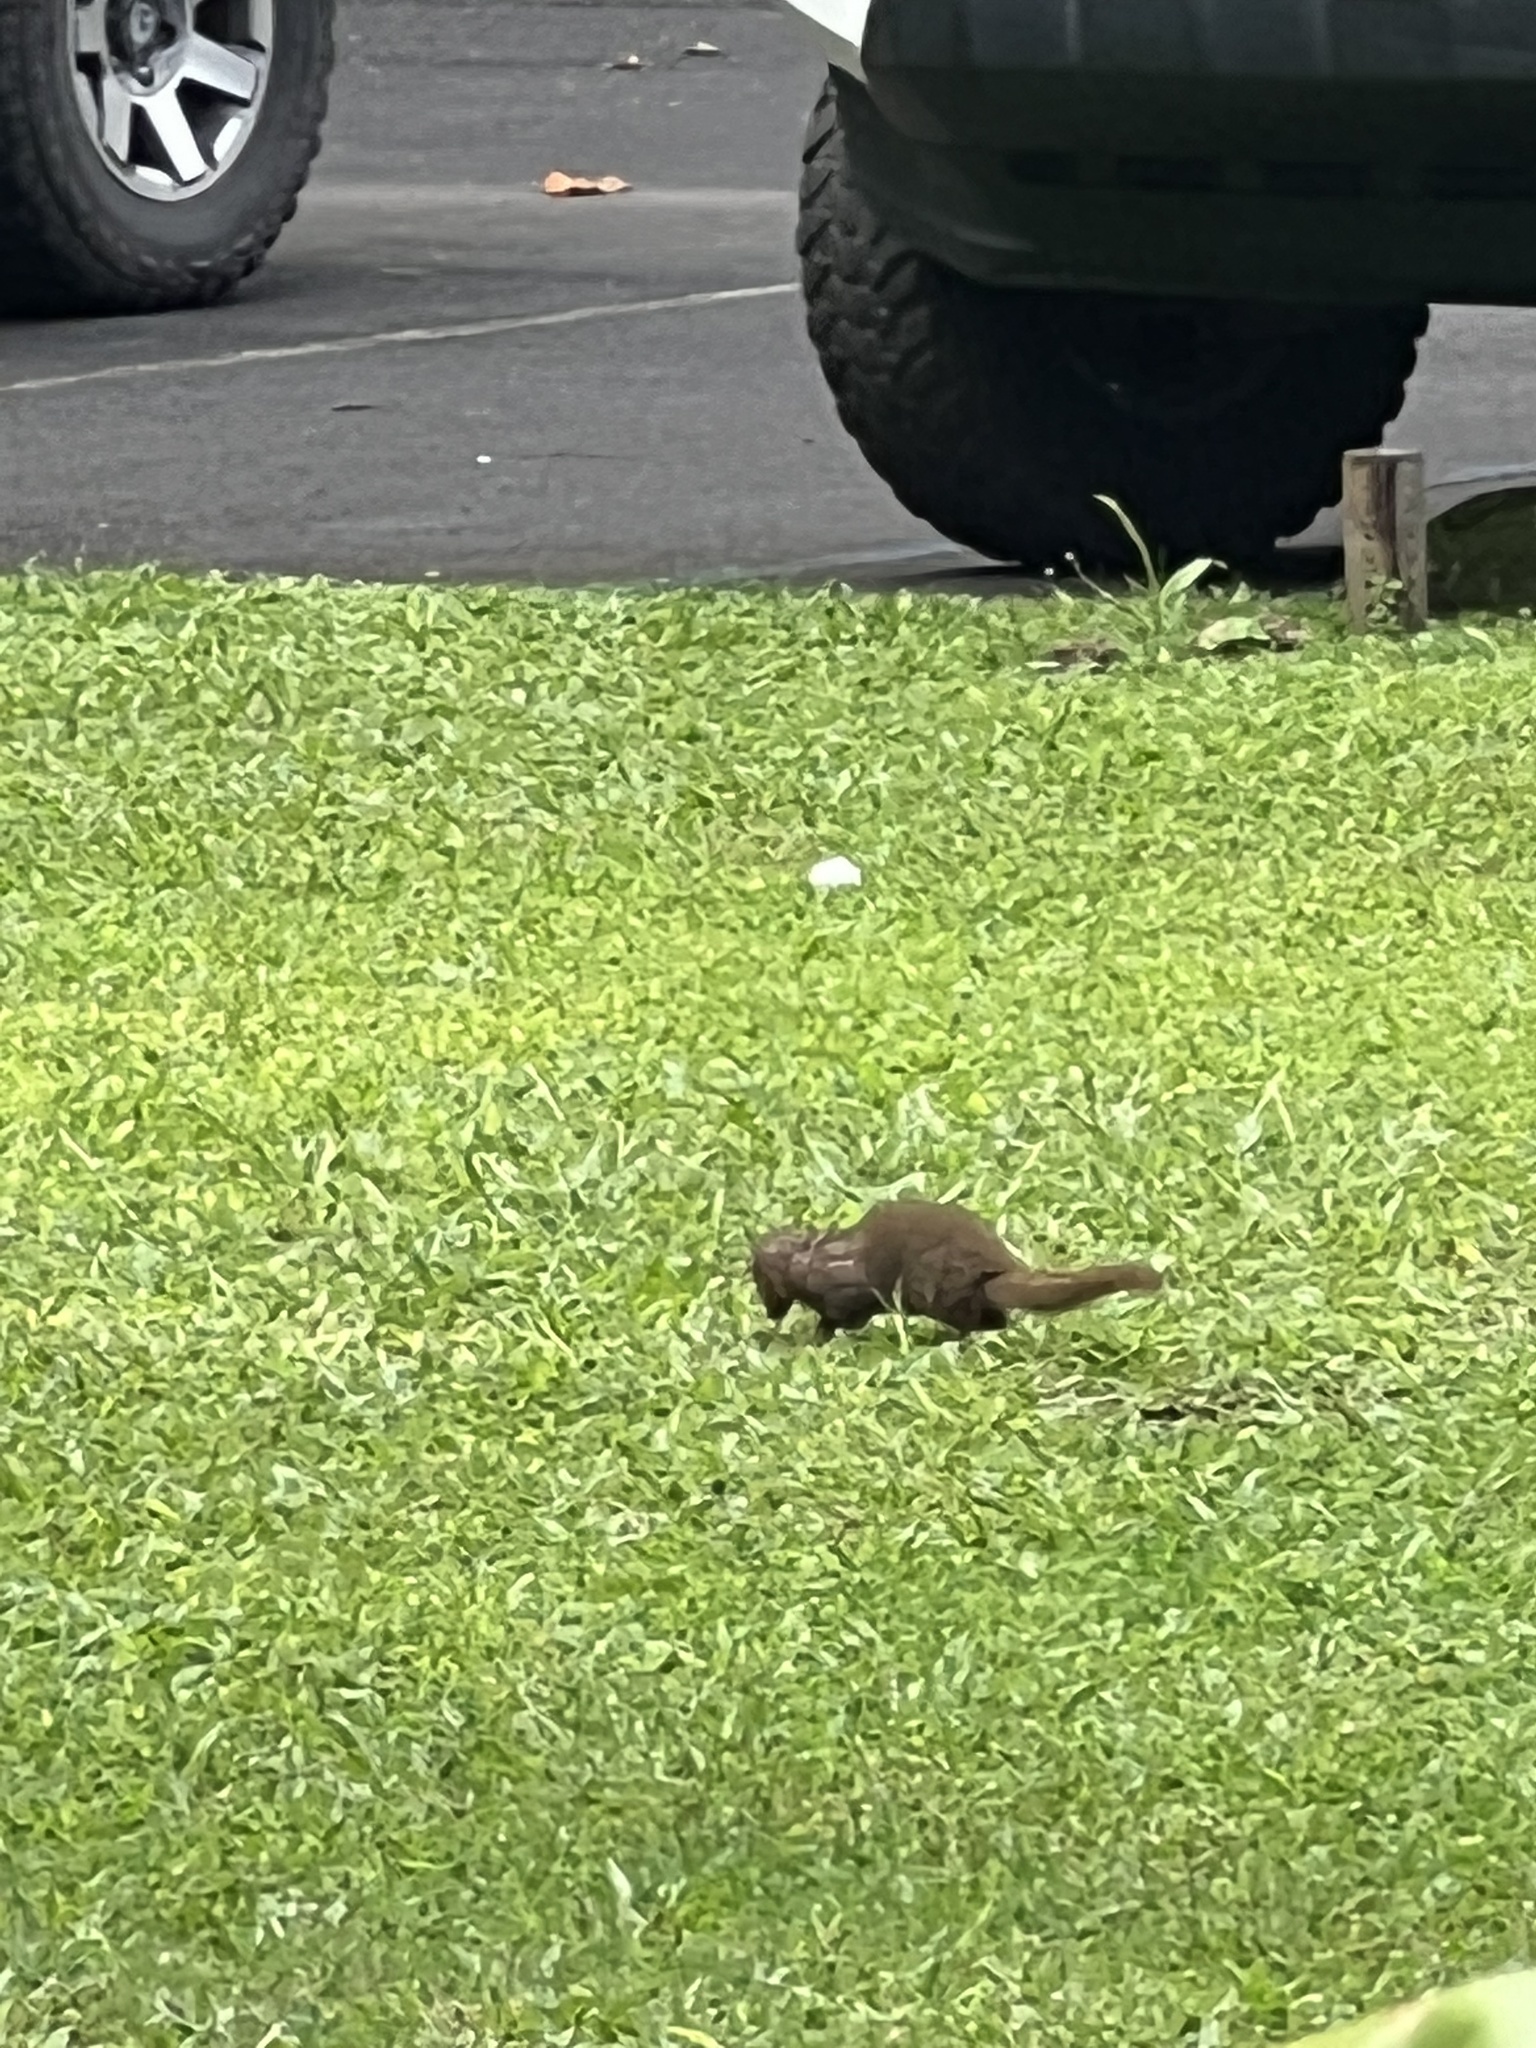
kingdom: Animalia
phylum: Chordata
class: Mammalia
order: Carnivora
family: Herpestidae
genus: Herpestes
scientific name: Herpestes javanicus
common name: Small asian mongoose
